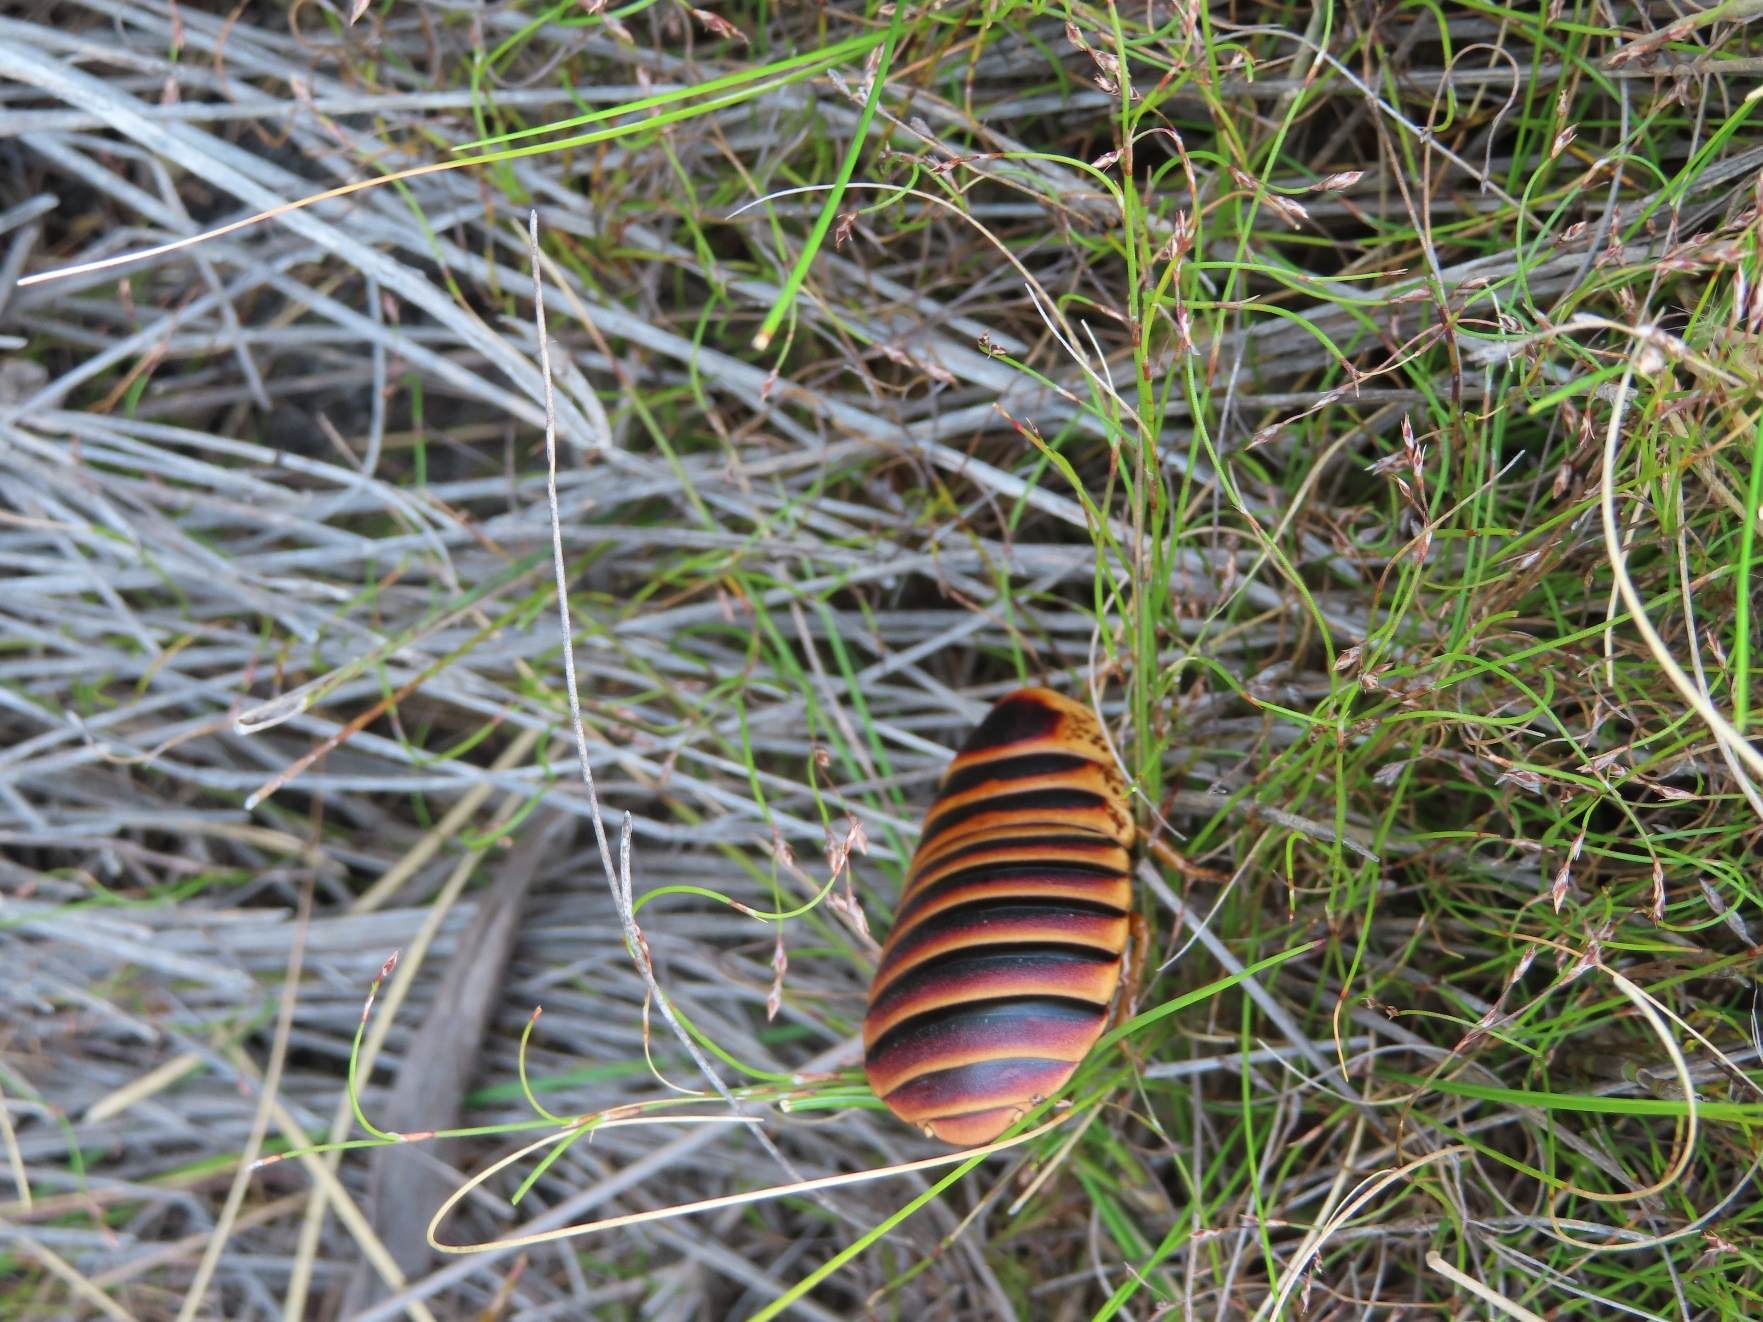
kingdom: Animalia
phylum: Arthropoda
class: Insecta
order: Blattodea
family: Blaberidae
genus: Aptera
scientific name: Aptera fusca
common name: Cape mountain cockroach
